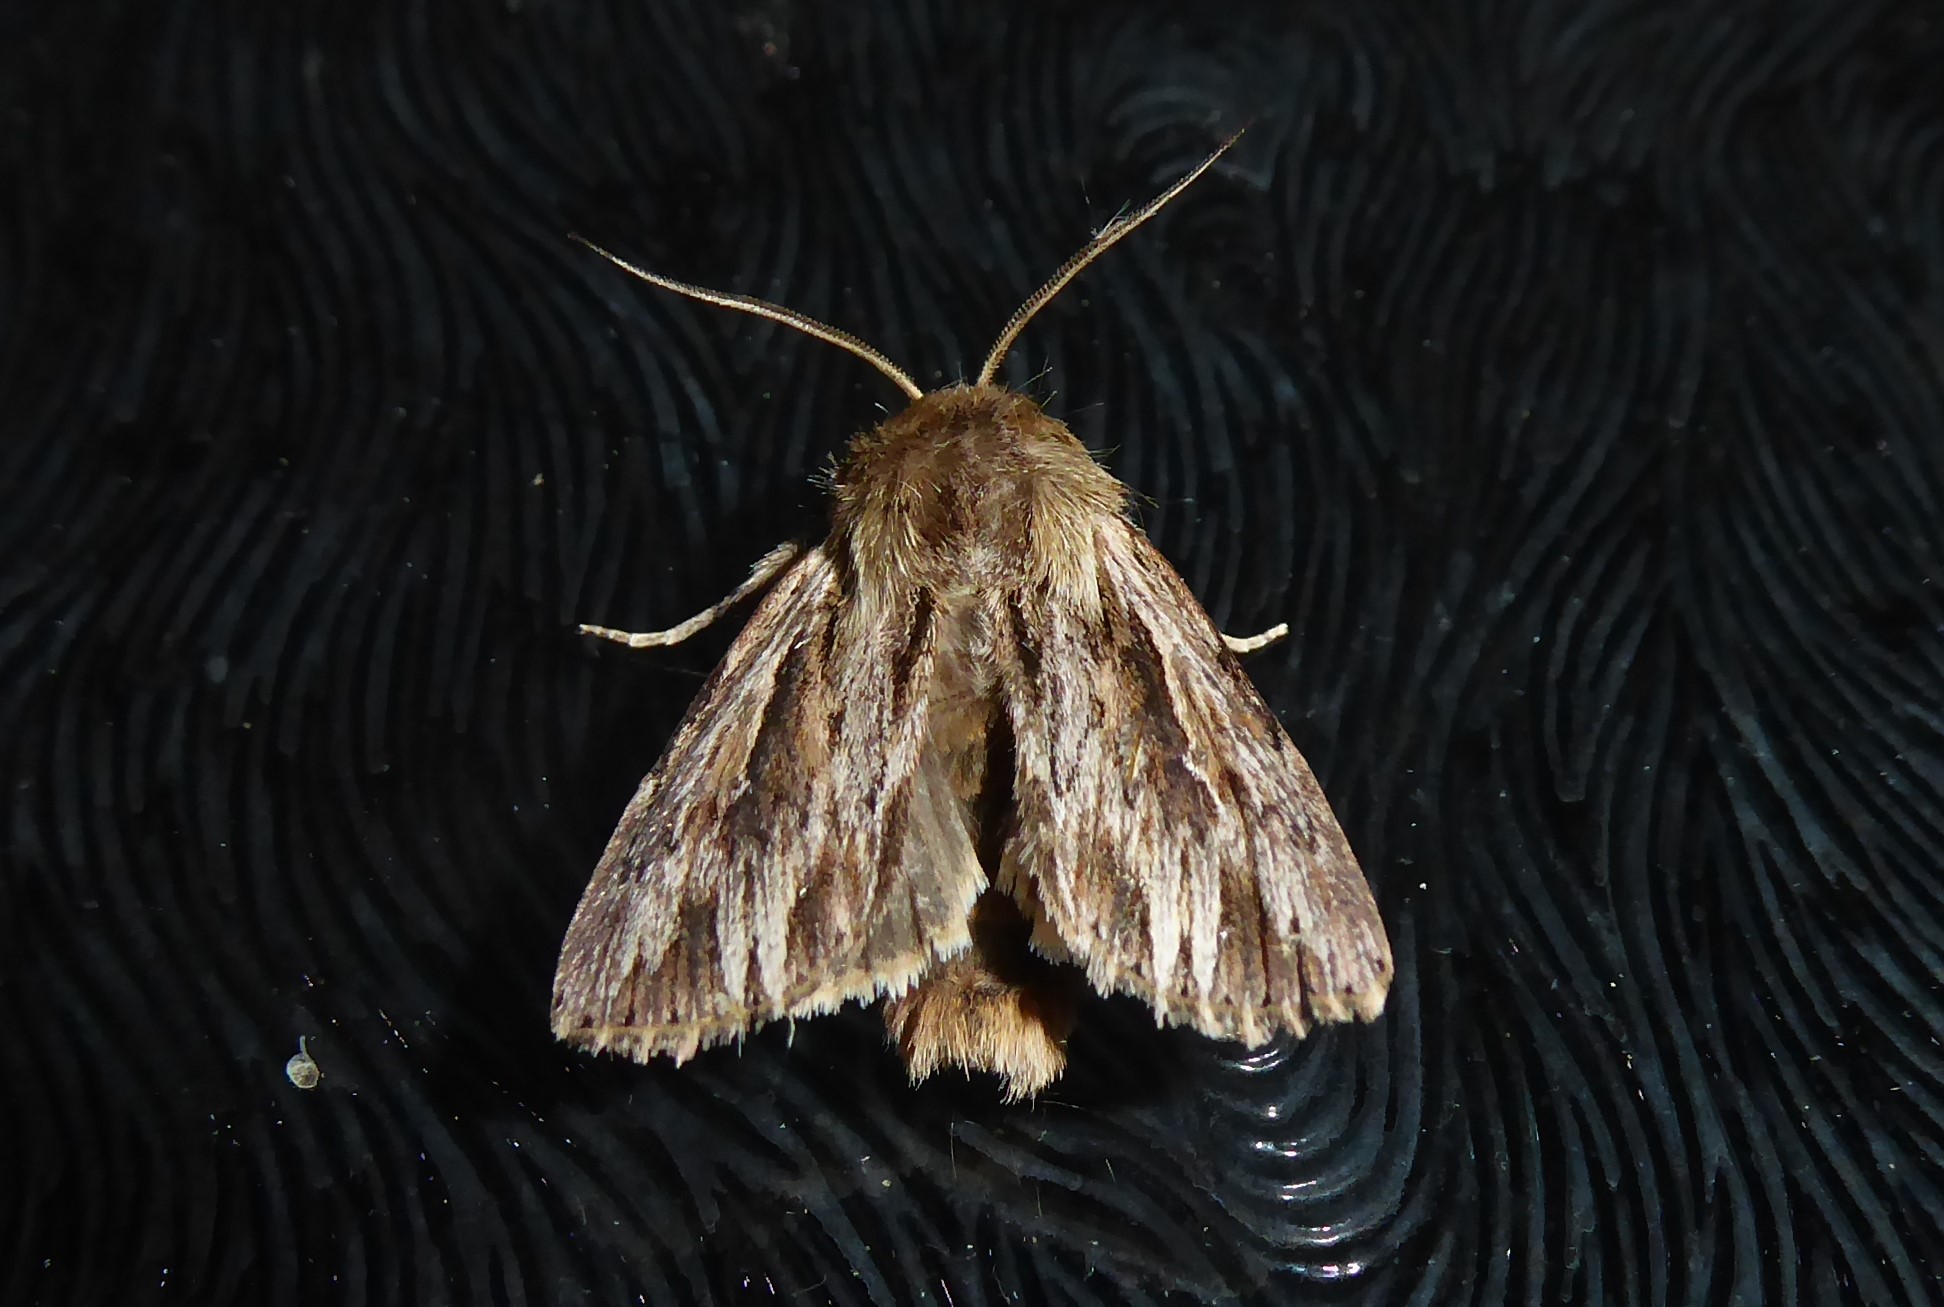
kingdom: Animalia
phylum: Arthropoda
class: Insecta
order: Lepidoptera
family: Noctuidae
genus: Persectania
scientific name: Persectania aversa
